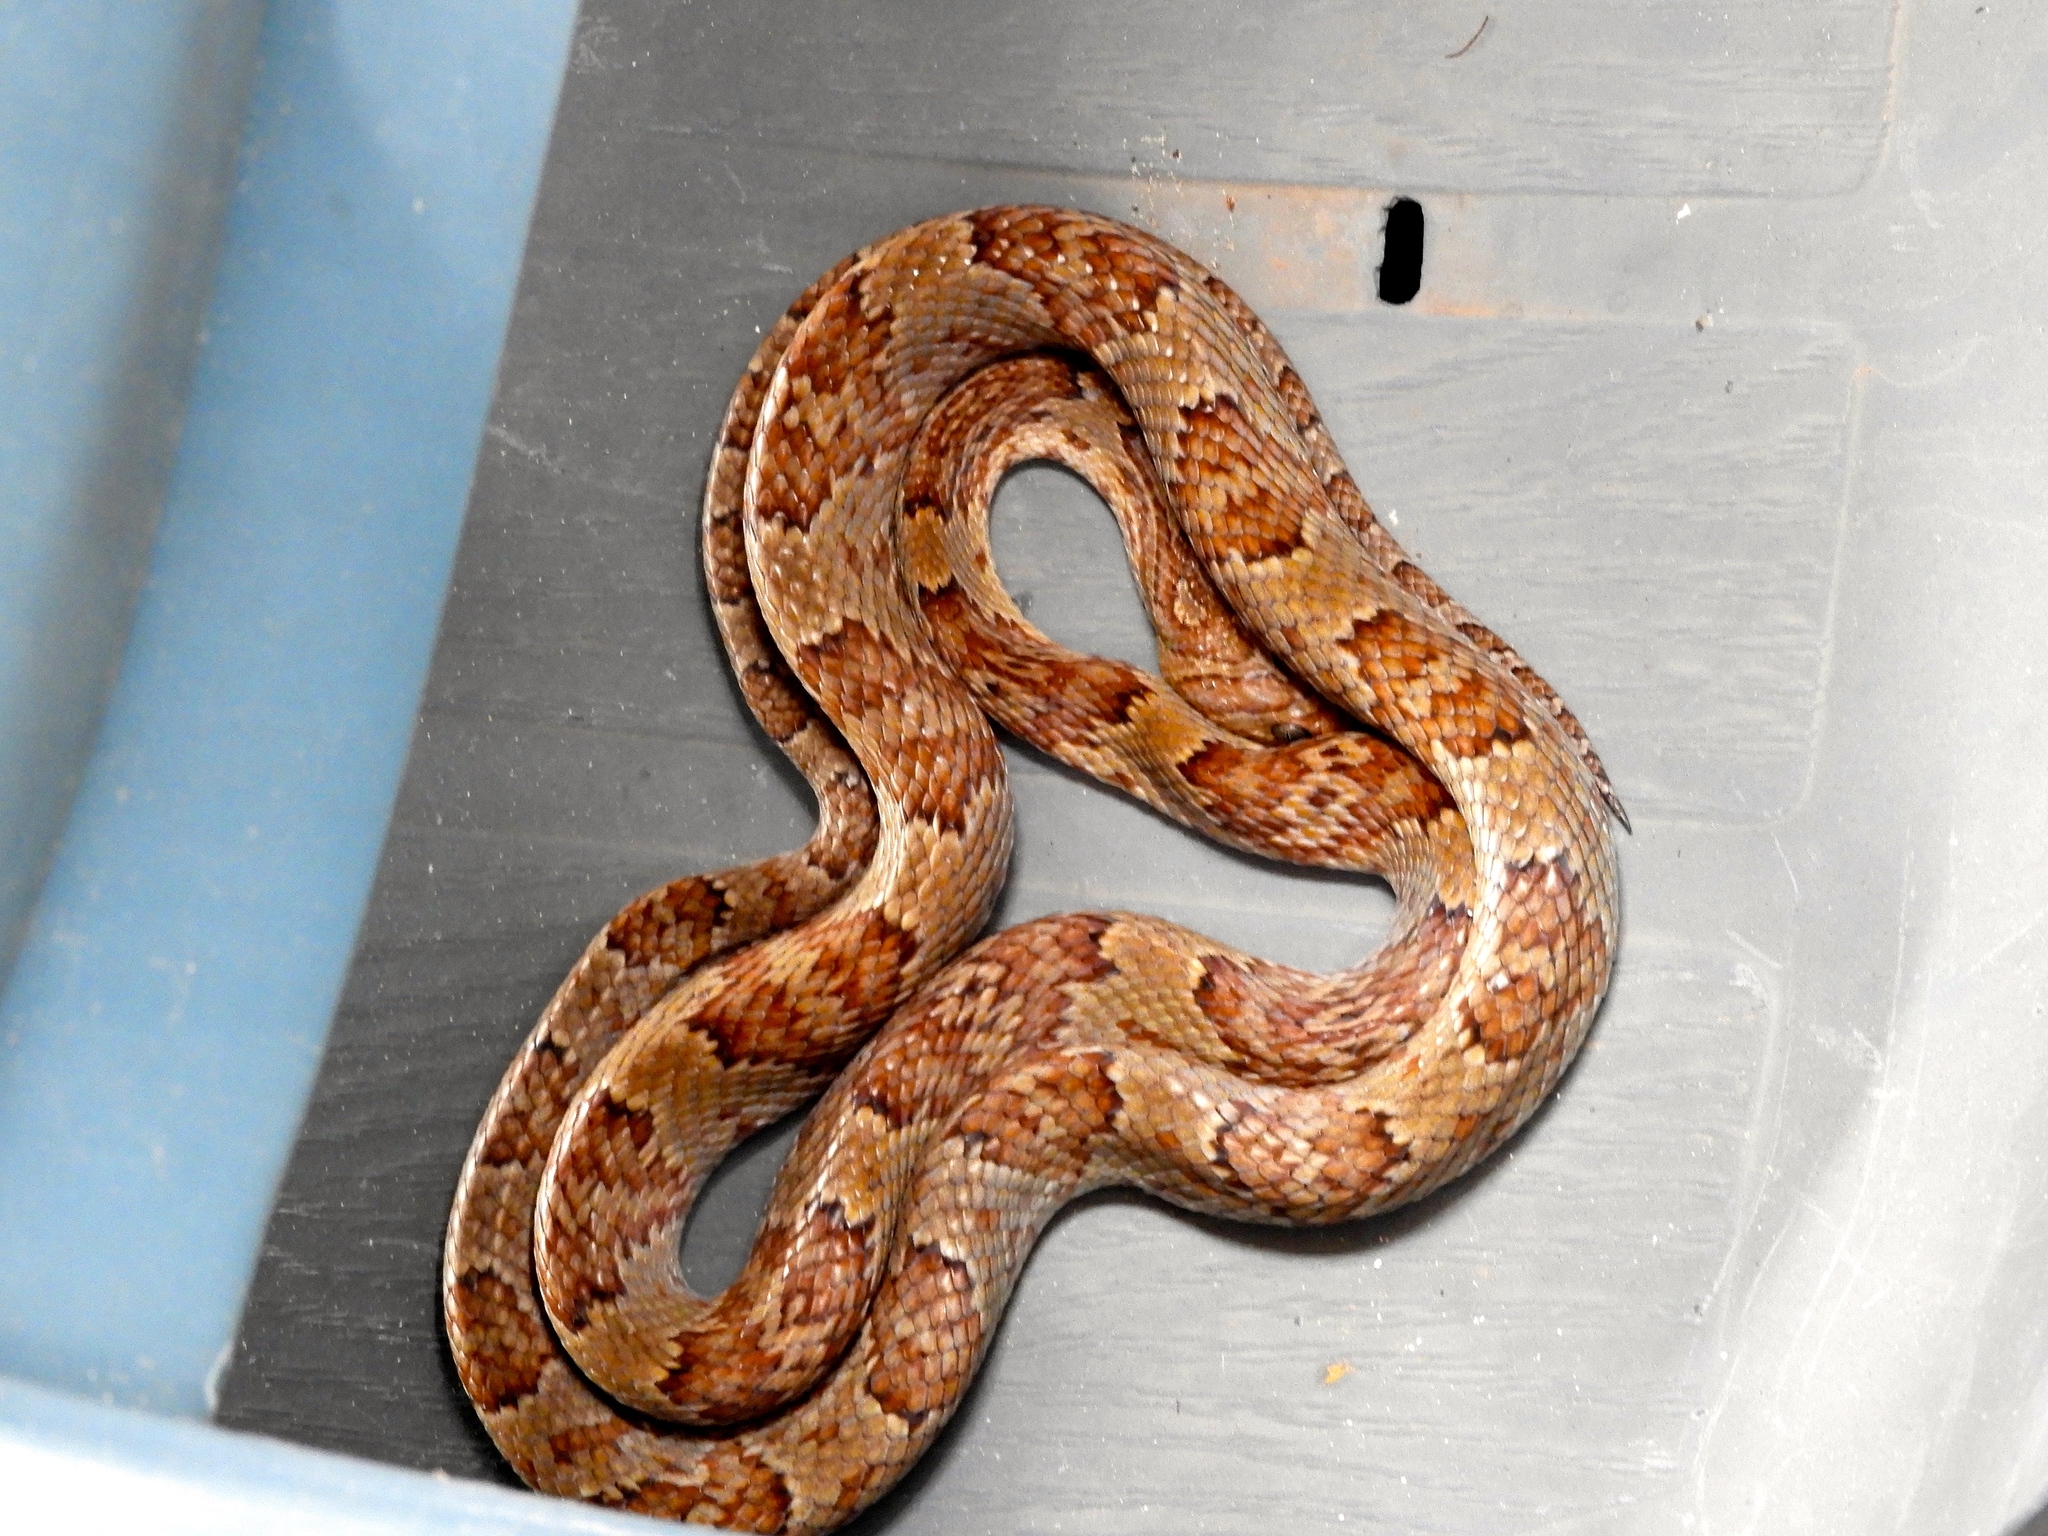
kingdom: Animalia
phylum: Chordata
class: Squamata
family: Colubridae
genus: Trimorphodon
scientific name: Trimorphodon paucimaculatus
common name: Sinaloan lyresnake
